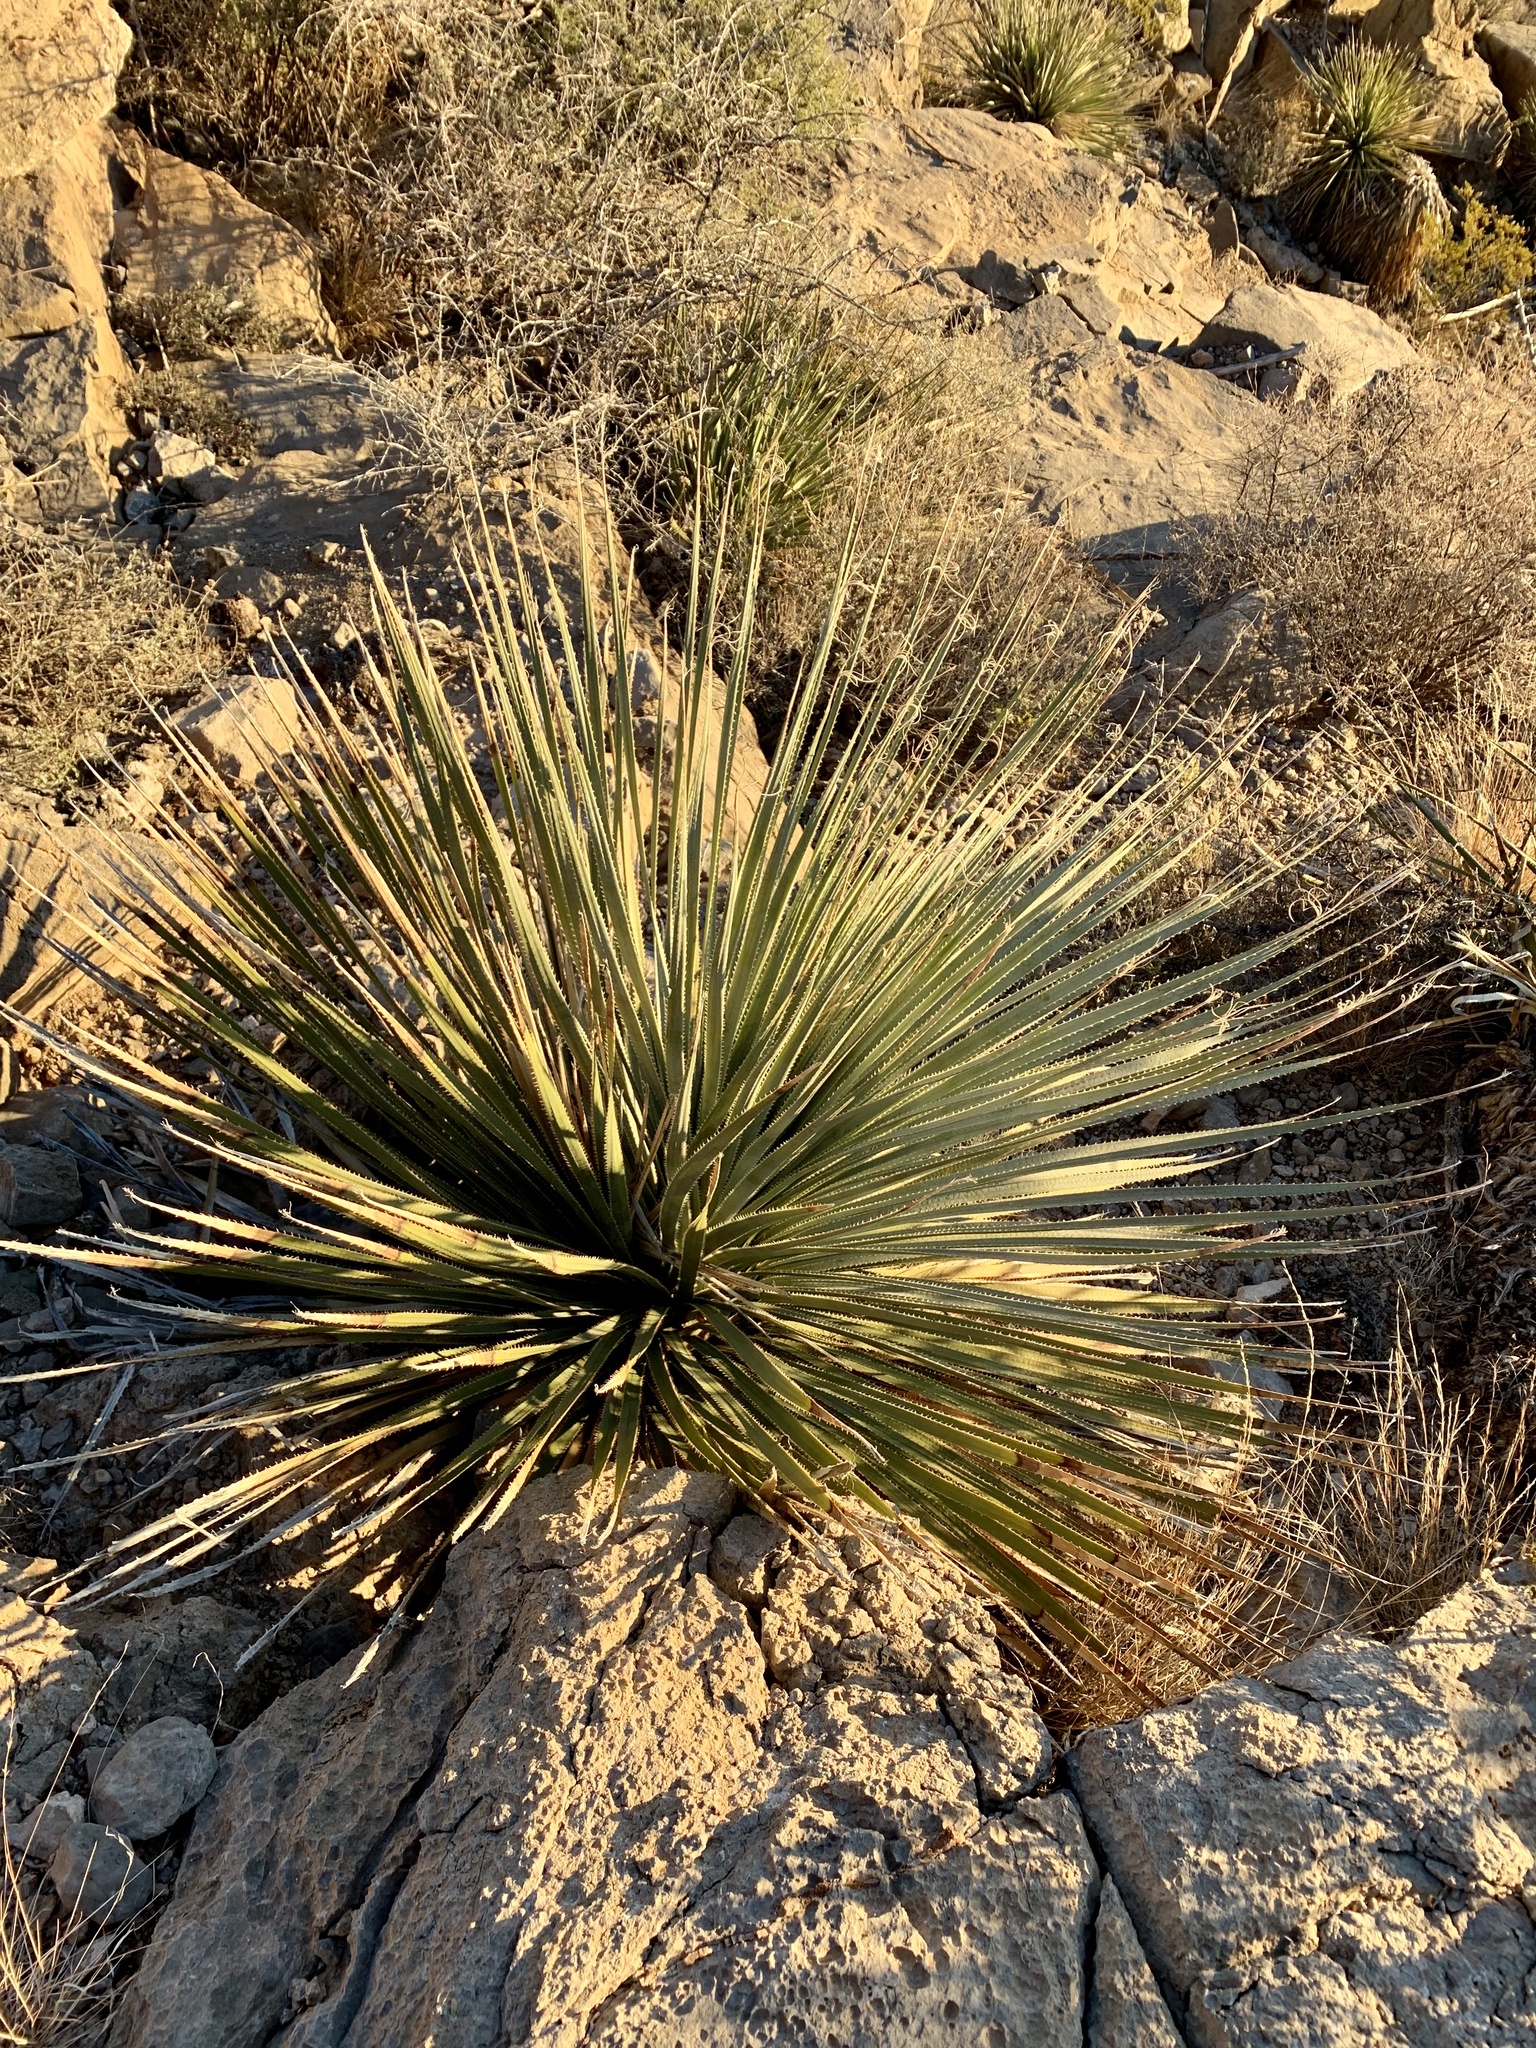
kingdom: Plantae
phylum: Tracheophyta
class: Liliopsida
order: Asparagales
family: Asparagaceae
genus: Dasylirion
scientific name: Dasylirion wheeleri
